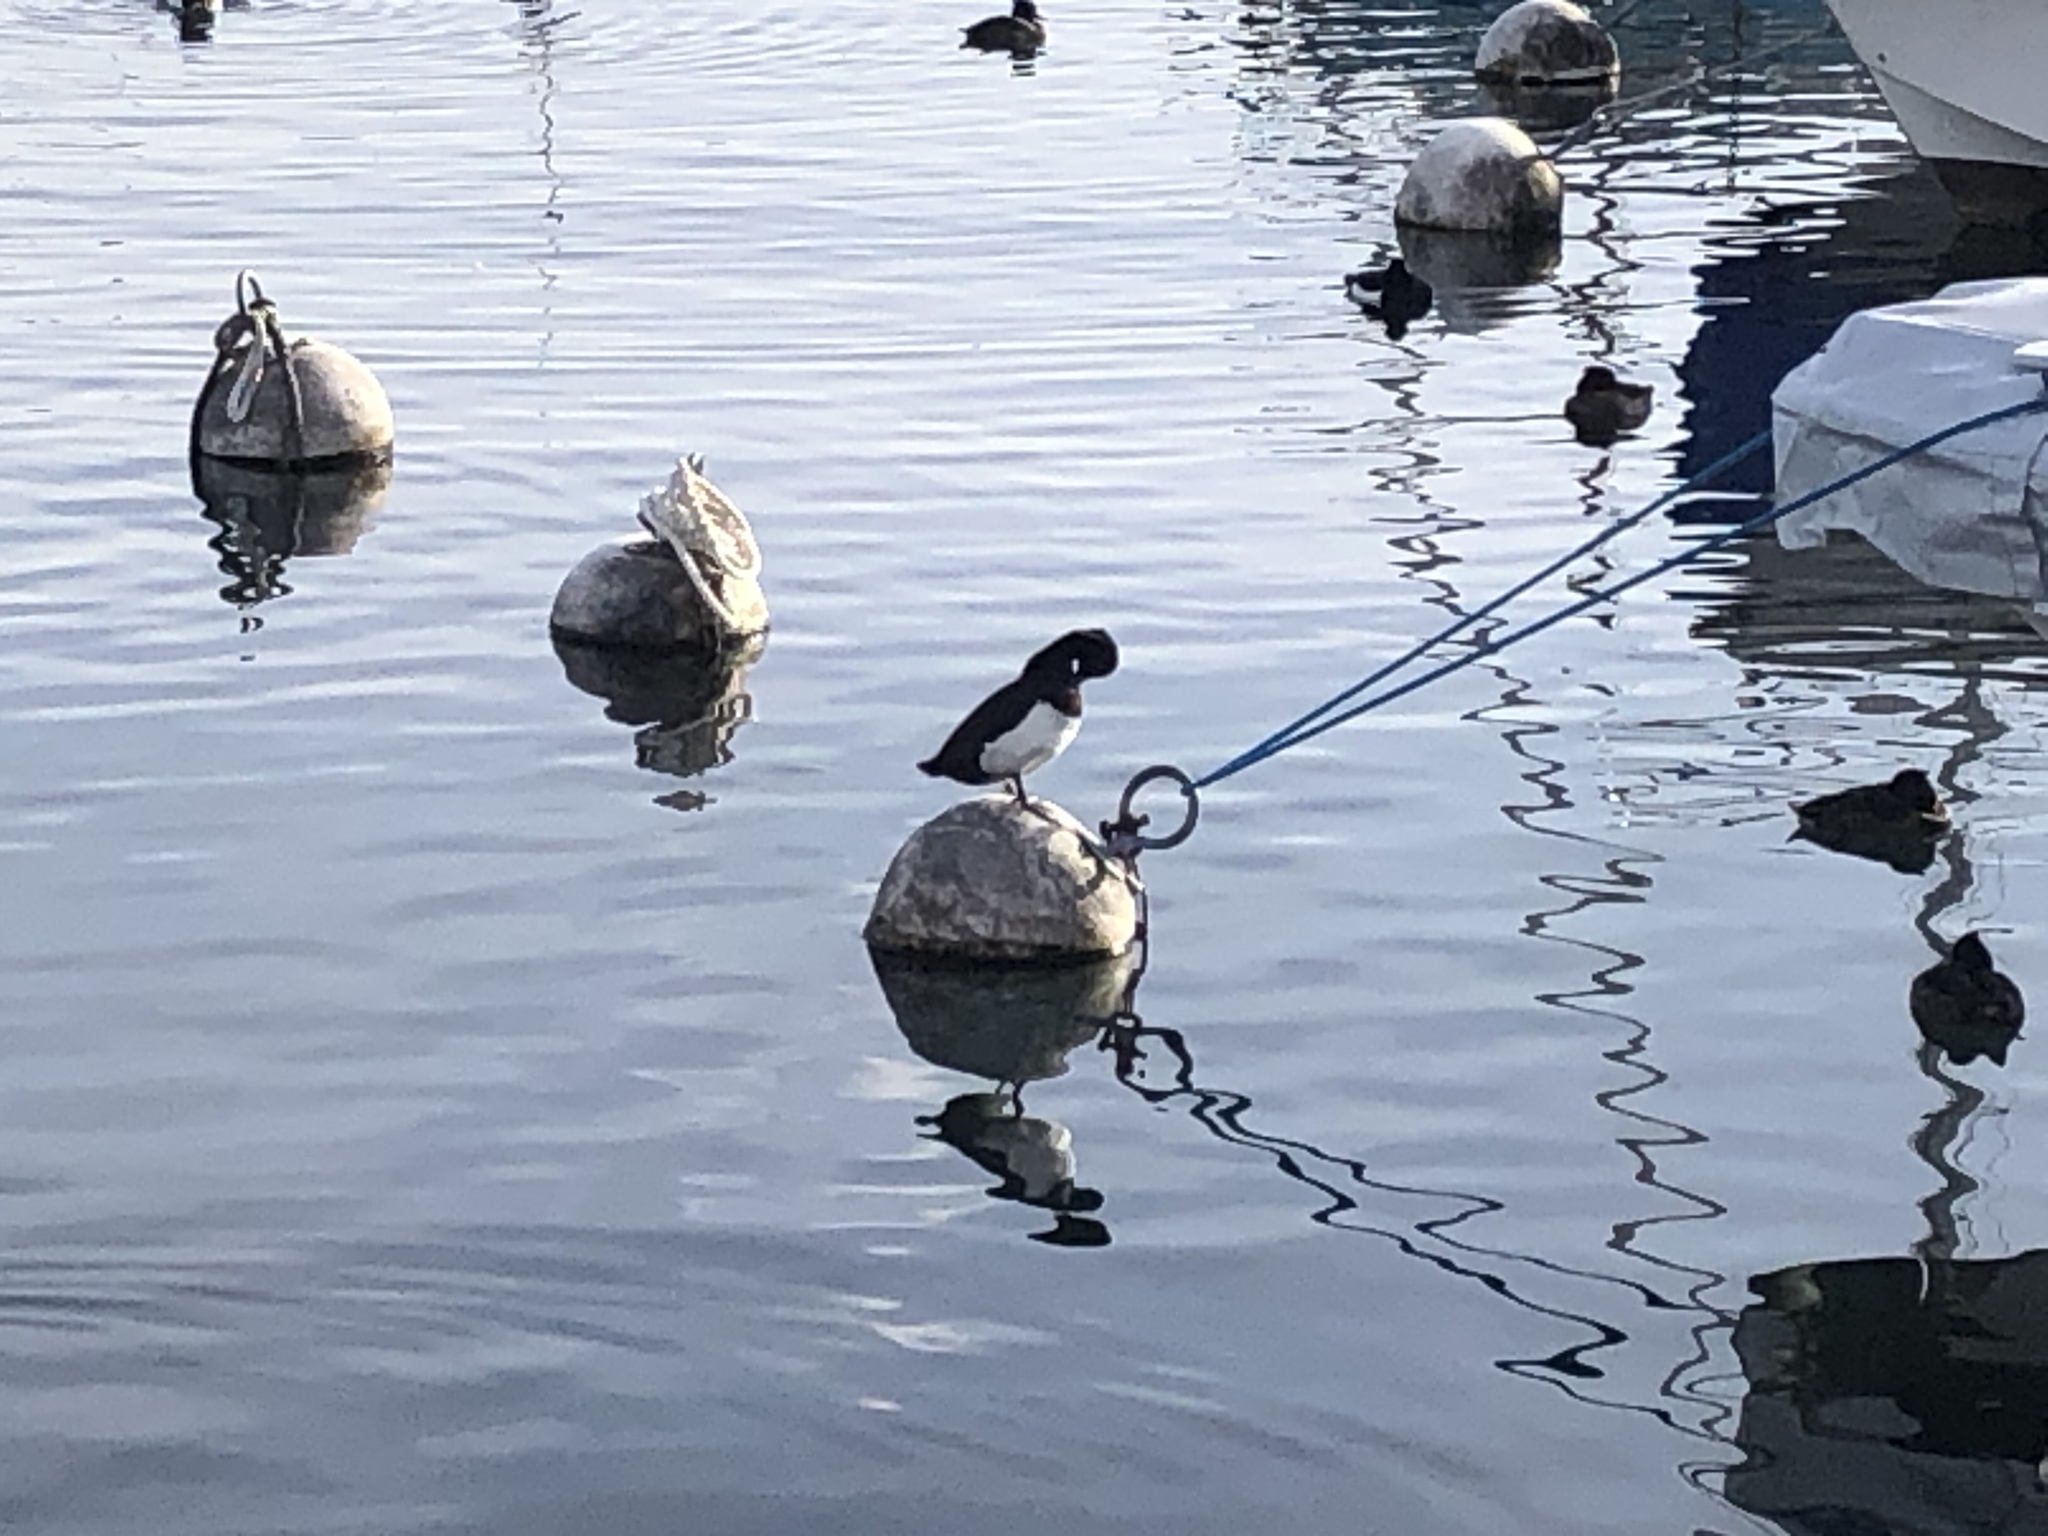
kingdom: Animalia
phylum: Chordata
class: Aves
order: Anseriformes
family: Anatidae
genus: Aythya
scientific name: Aythya fuligula
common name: Tufted duck
